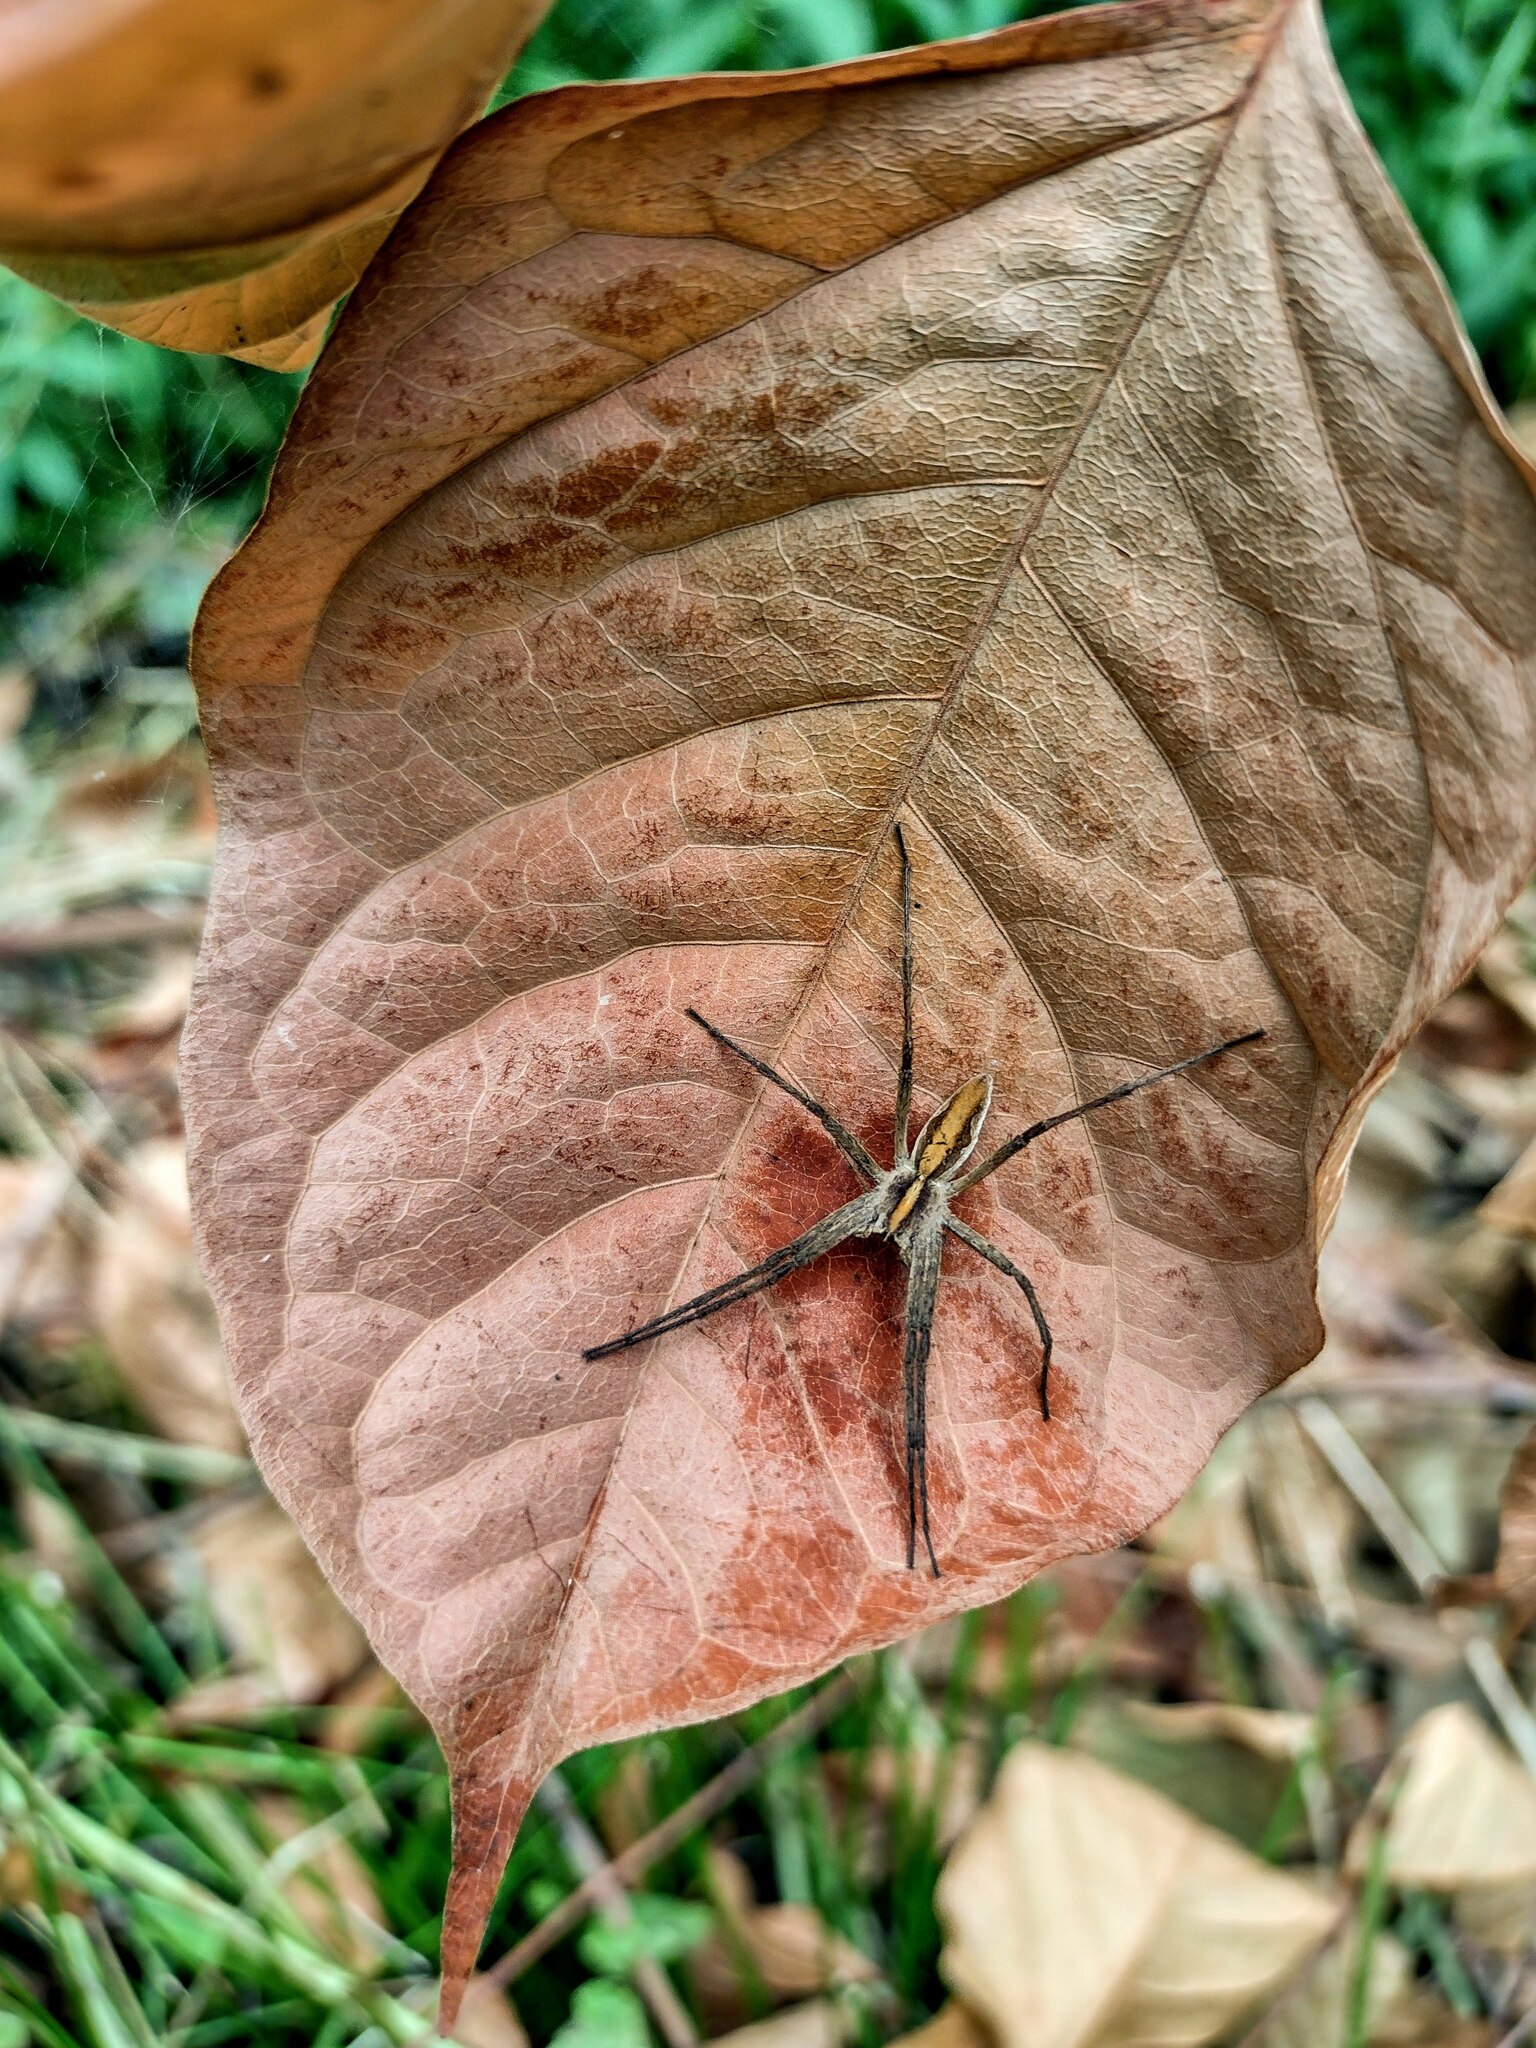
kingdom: Animalia
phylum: Arthropoda
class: Arachnida
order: Araneae
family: Pisauridae
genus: Pisaura
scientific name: Pisaura mirabilis
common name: Tent spider
